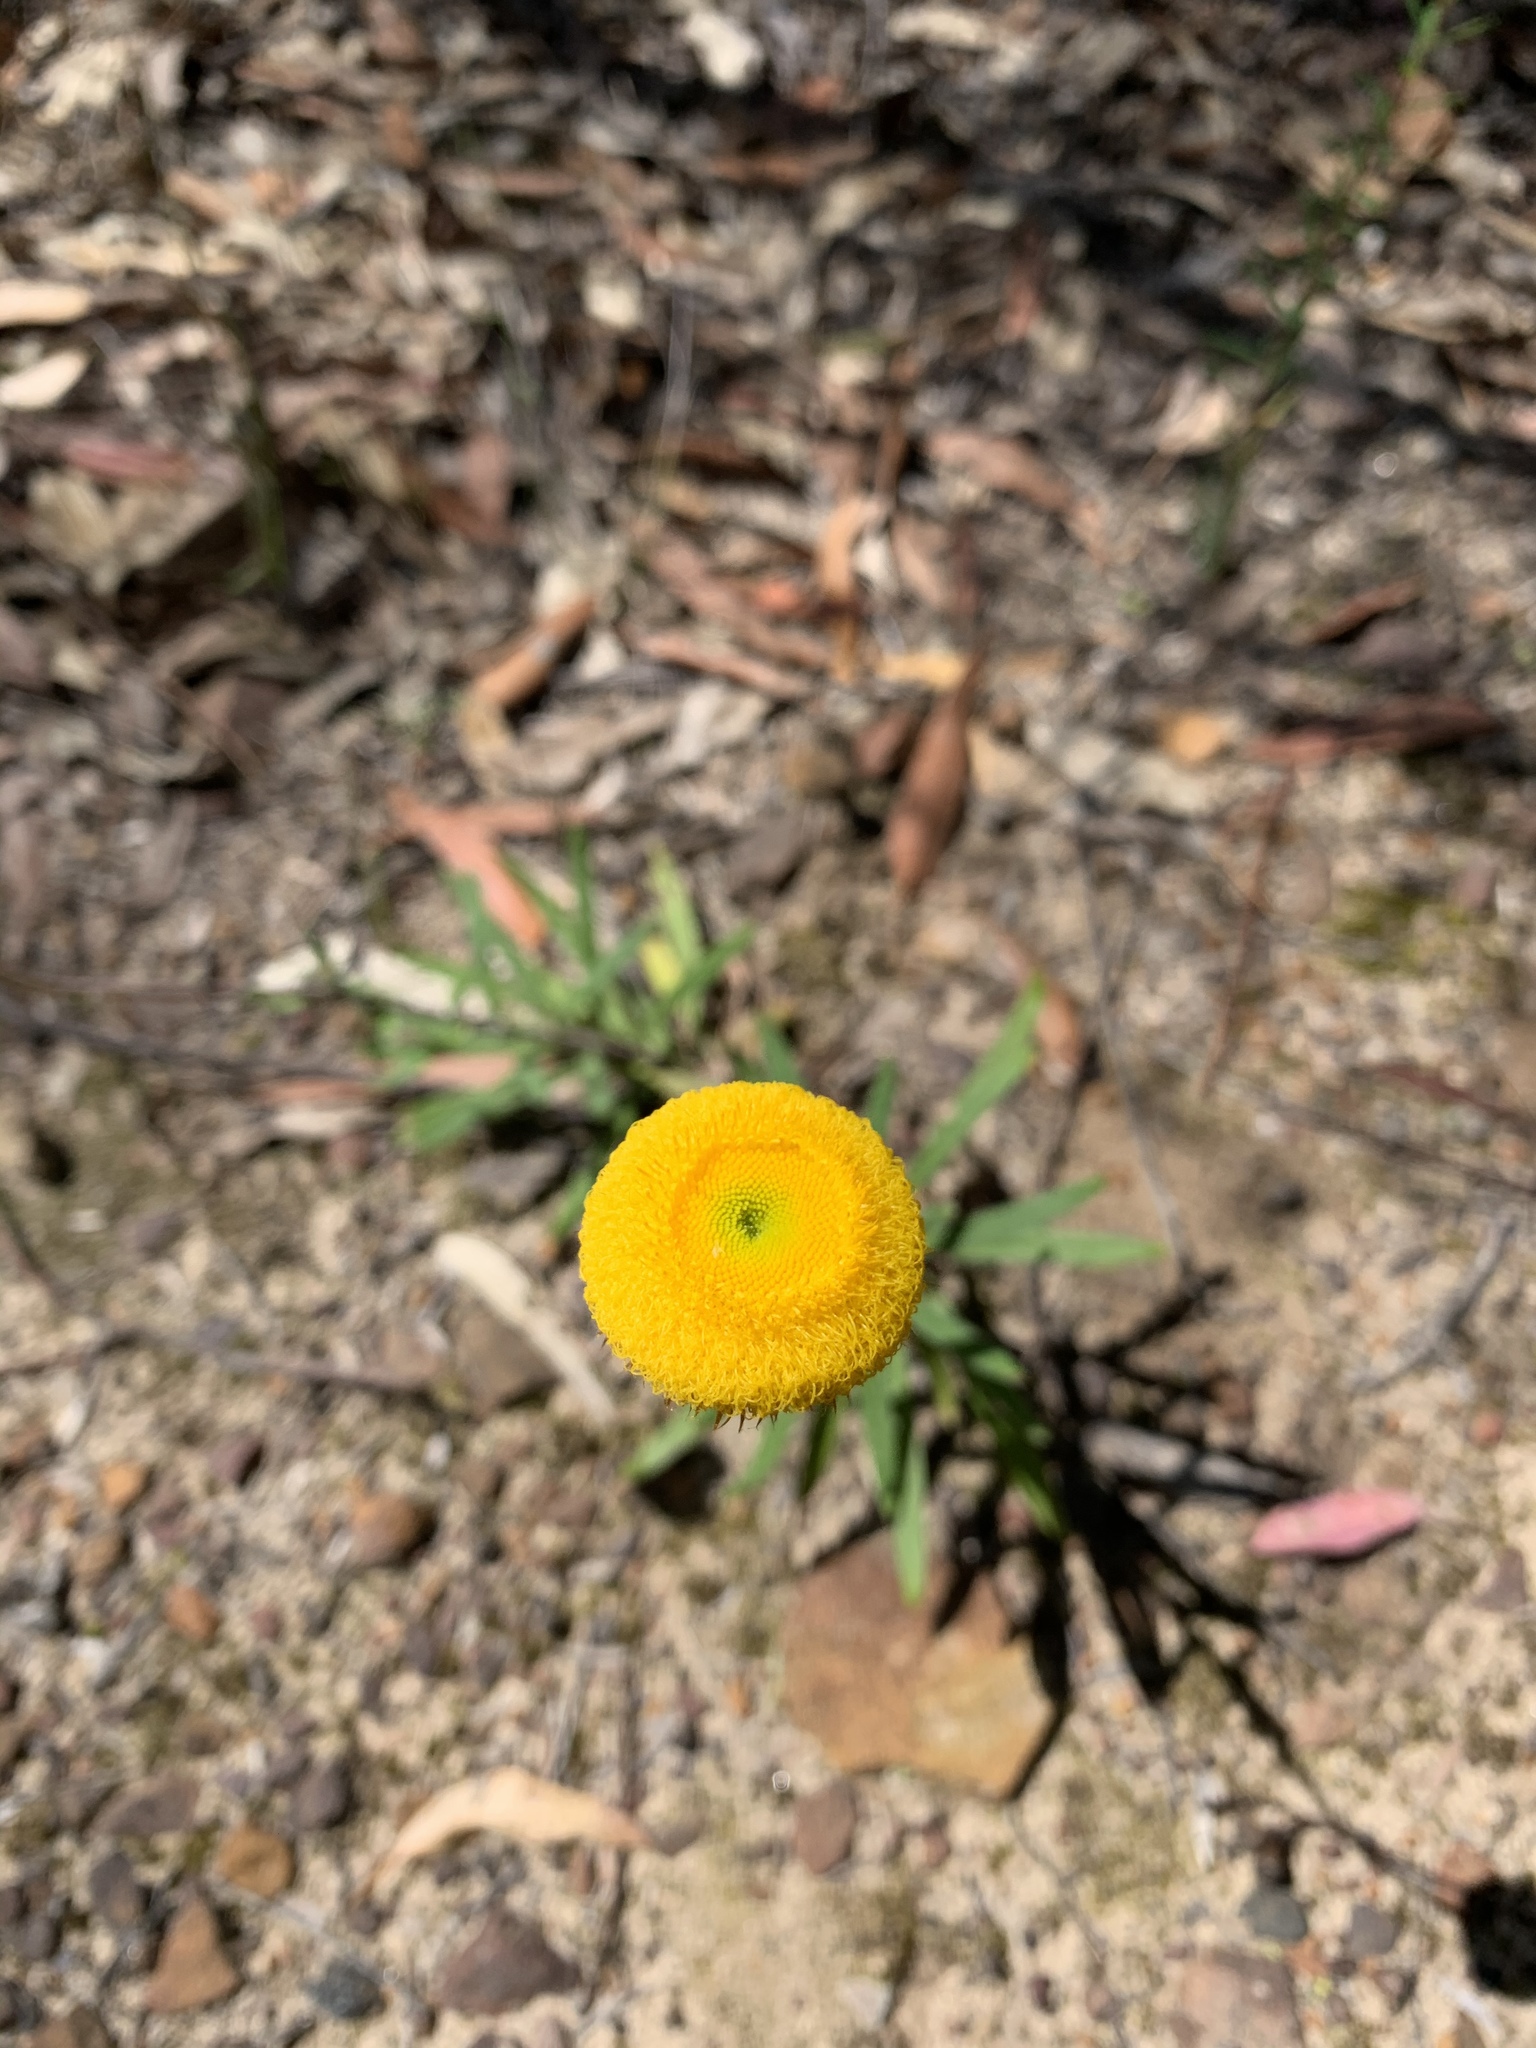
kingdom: Plantae
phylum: Tracheophyta
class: Magnoliopsida
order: Asterales
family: Asteraceae
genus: Coronidium
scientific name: Coronidium scorpioides
